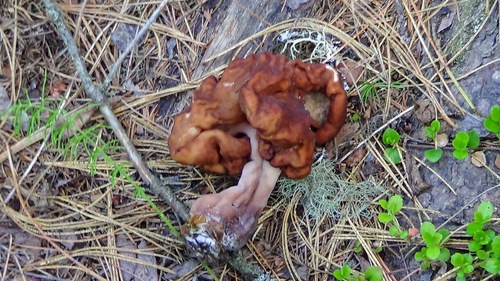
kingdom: Fungi
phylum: Ascomycota
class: Pezizomycetes
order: Pezizales
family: Discinaceae
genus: Gyromitra
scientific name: Gyromitra esculenta
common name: False morel
